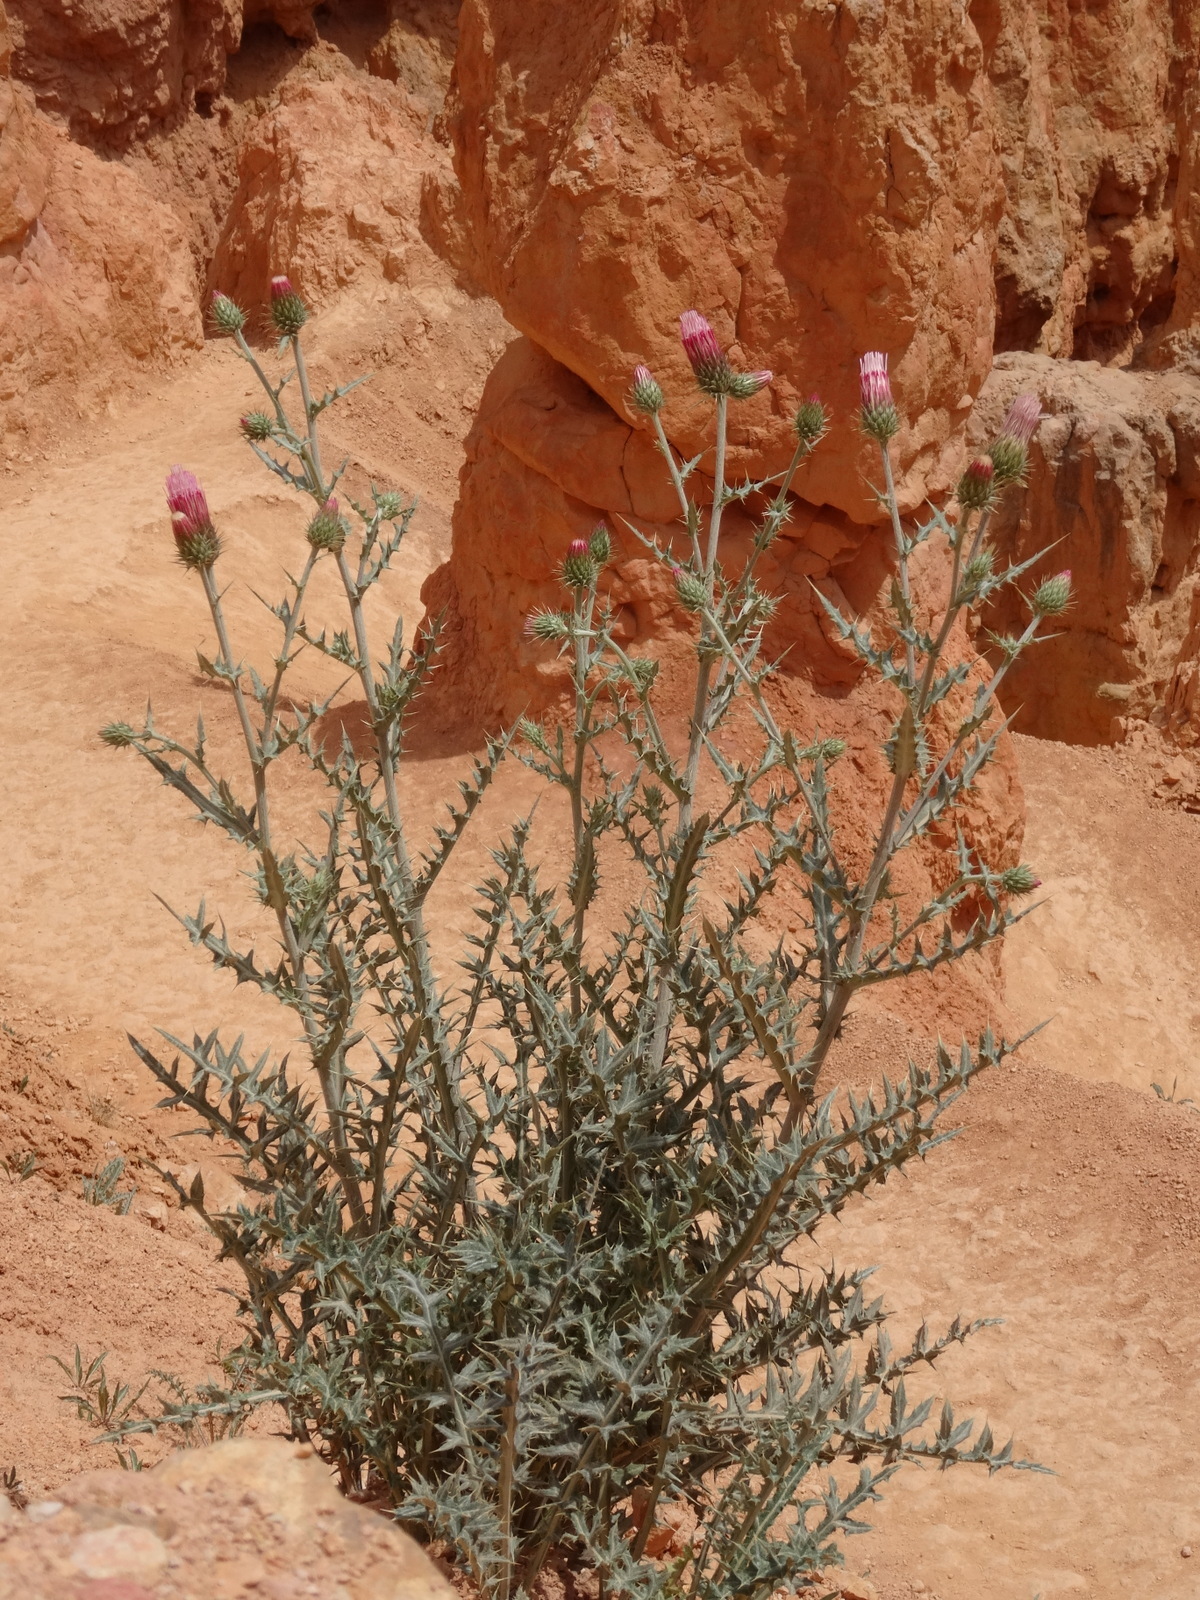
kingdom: Plantae
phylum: Tracheophyta
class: Magnoliopsida
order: Asterales
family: Asteraceae
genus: Cirsium
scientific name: Cirsium arizonicum
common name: Arizona thistle
